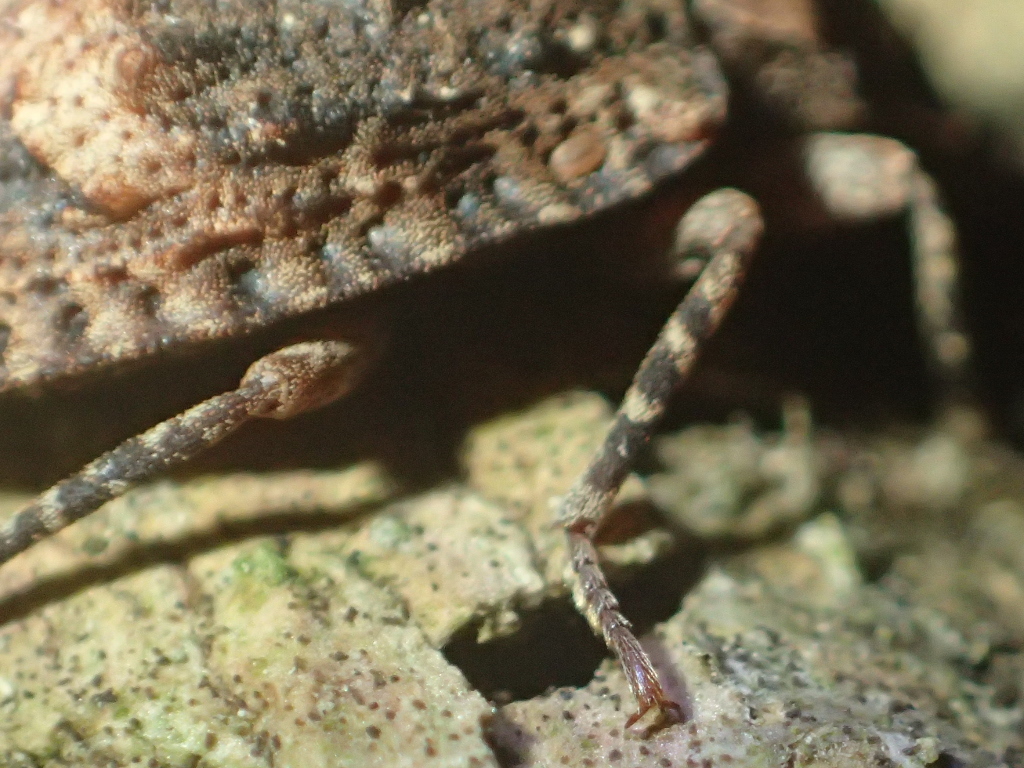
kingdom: Animalia
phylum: Arthropoda
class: Insecta
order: Coleoptera
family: Ulodidae
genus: Syrphetodes
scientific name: Syrphetodes marginatus
